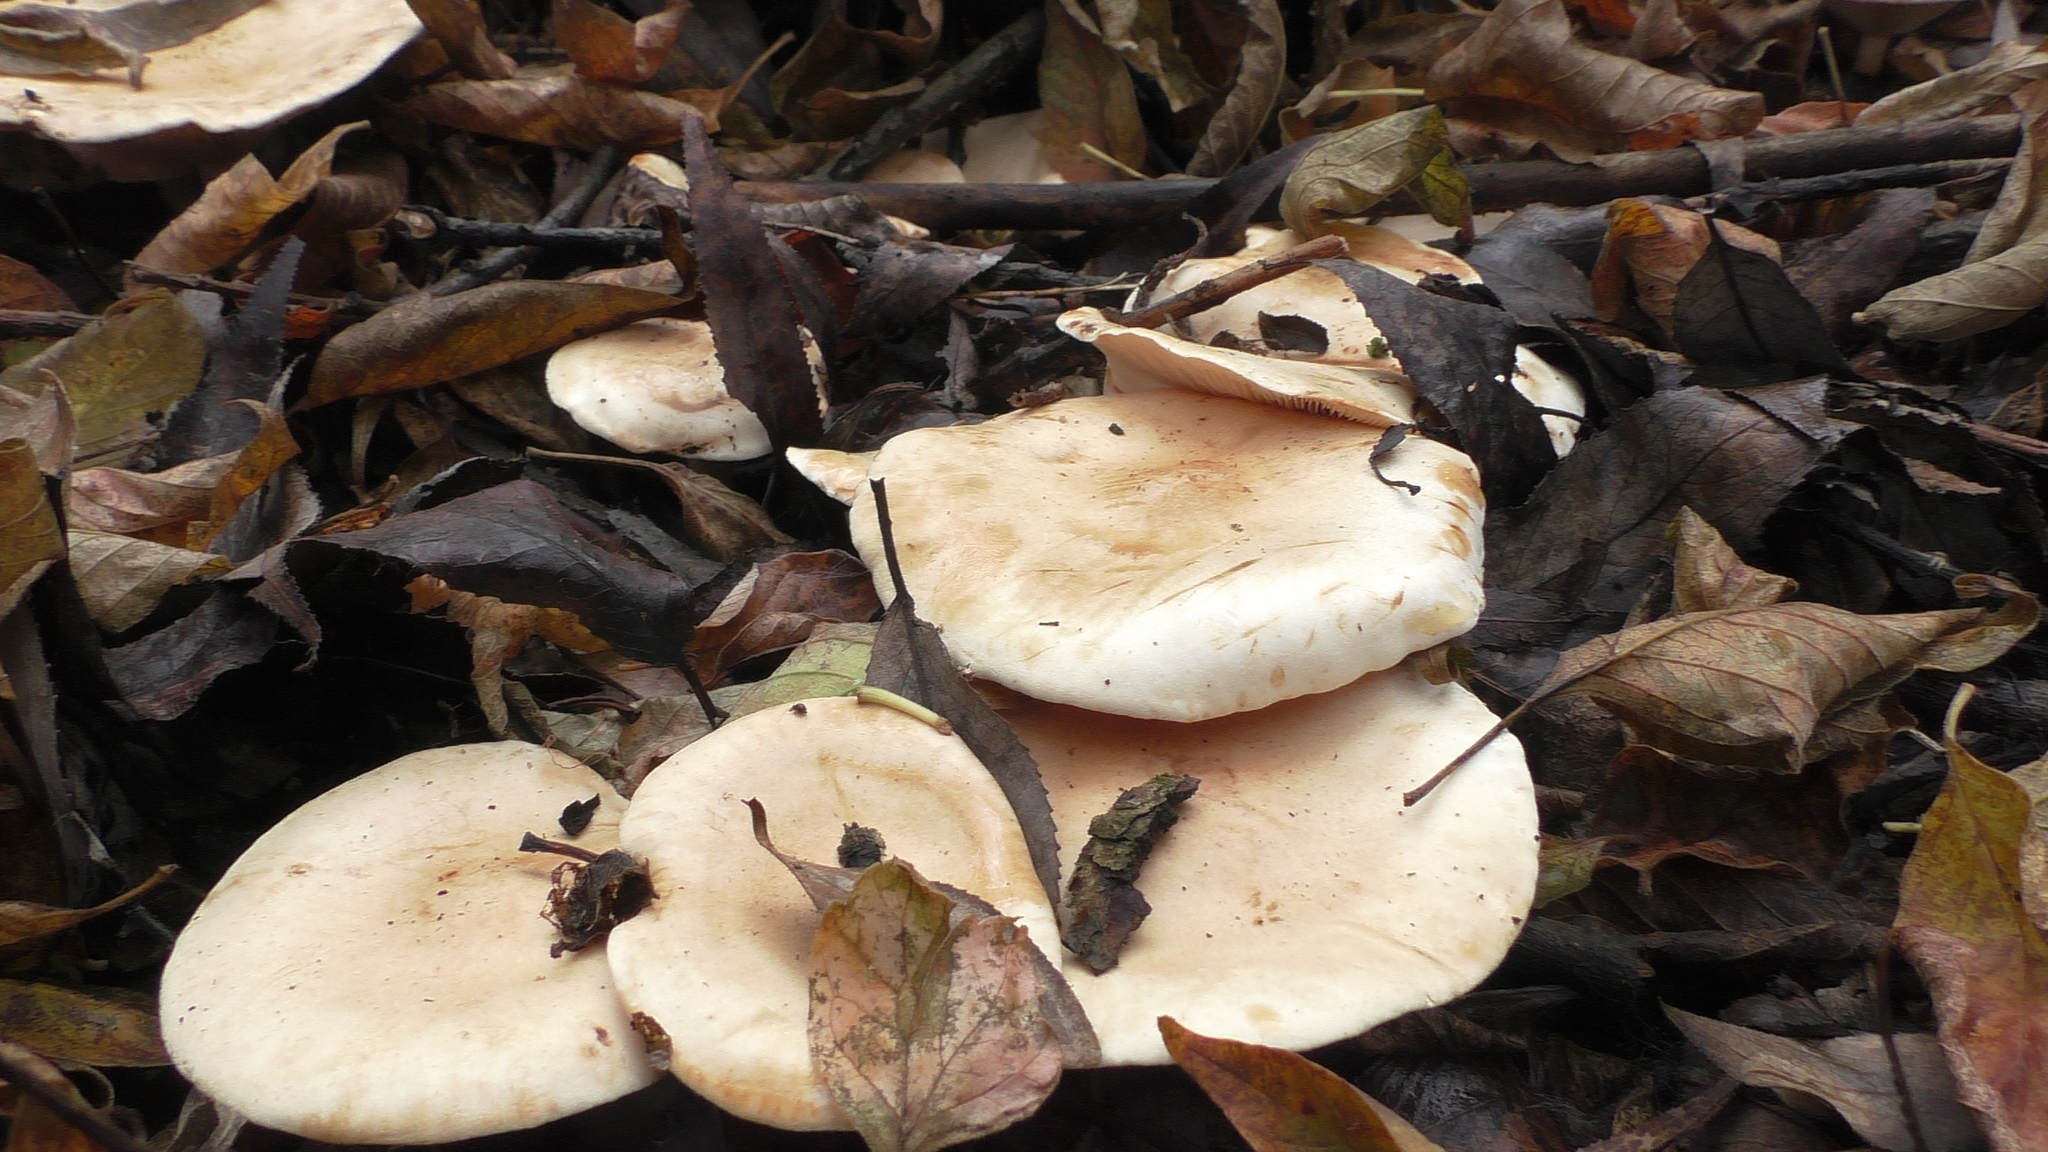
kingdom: Fungi
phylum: Basidiomycota
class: Agaricomycetes
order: Agaricales
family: Tricholomataceae
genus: Paralepista
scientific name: Paralepista flaccida
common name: Tawny funnel cap
